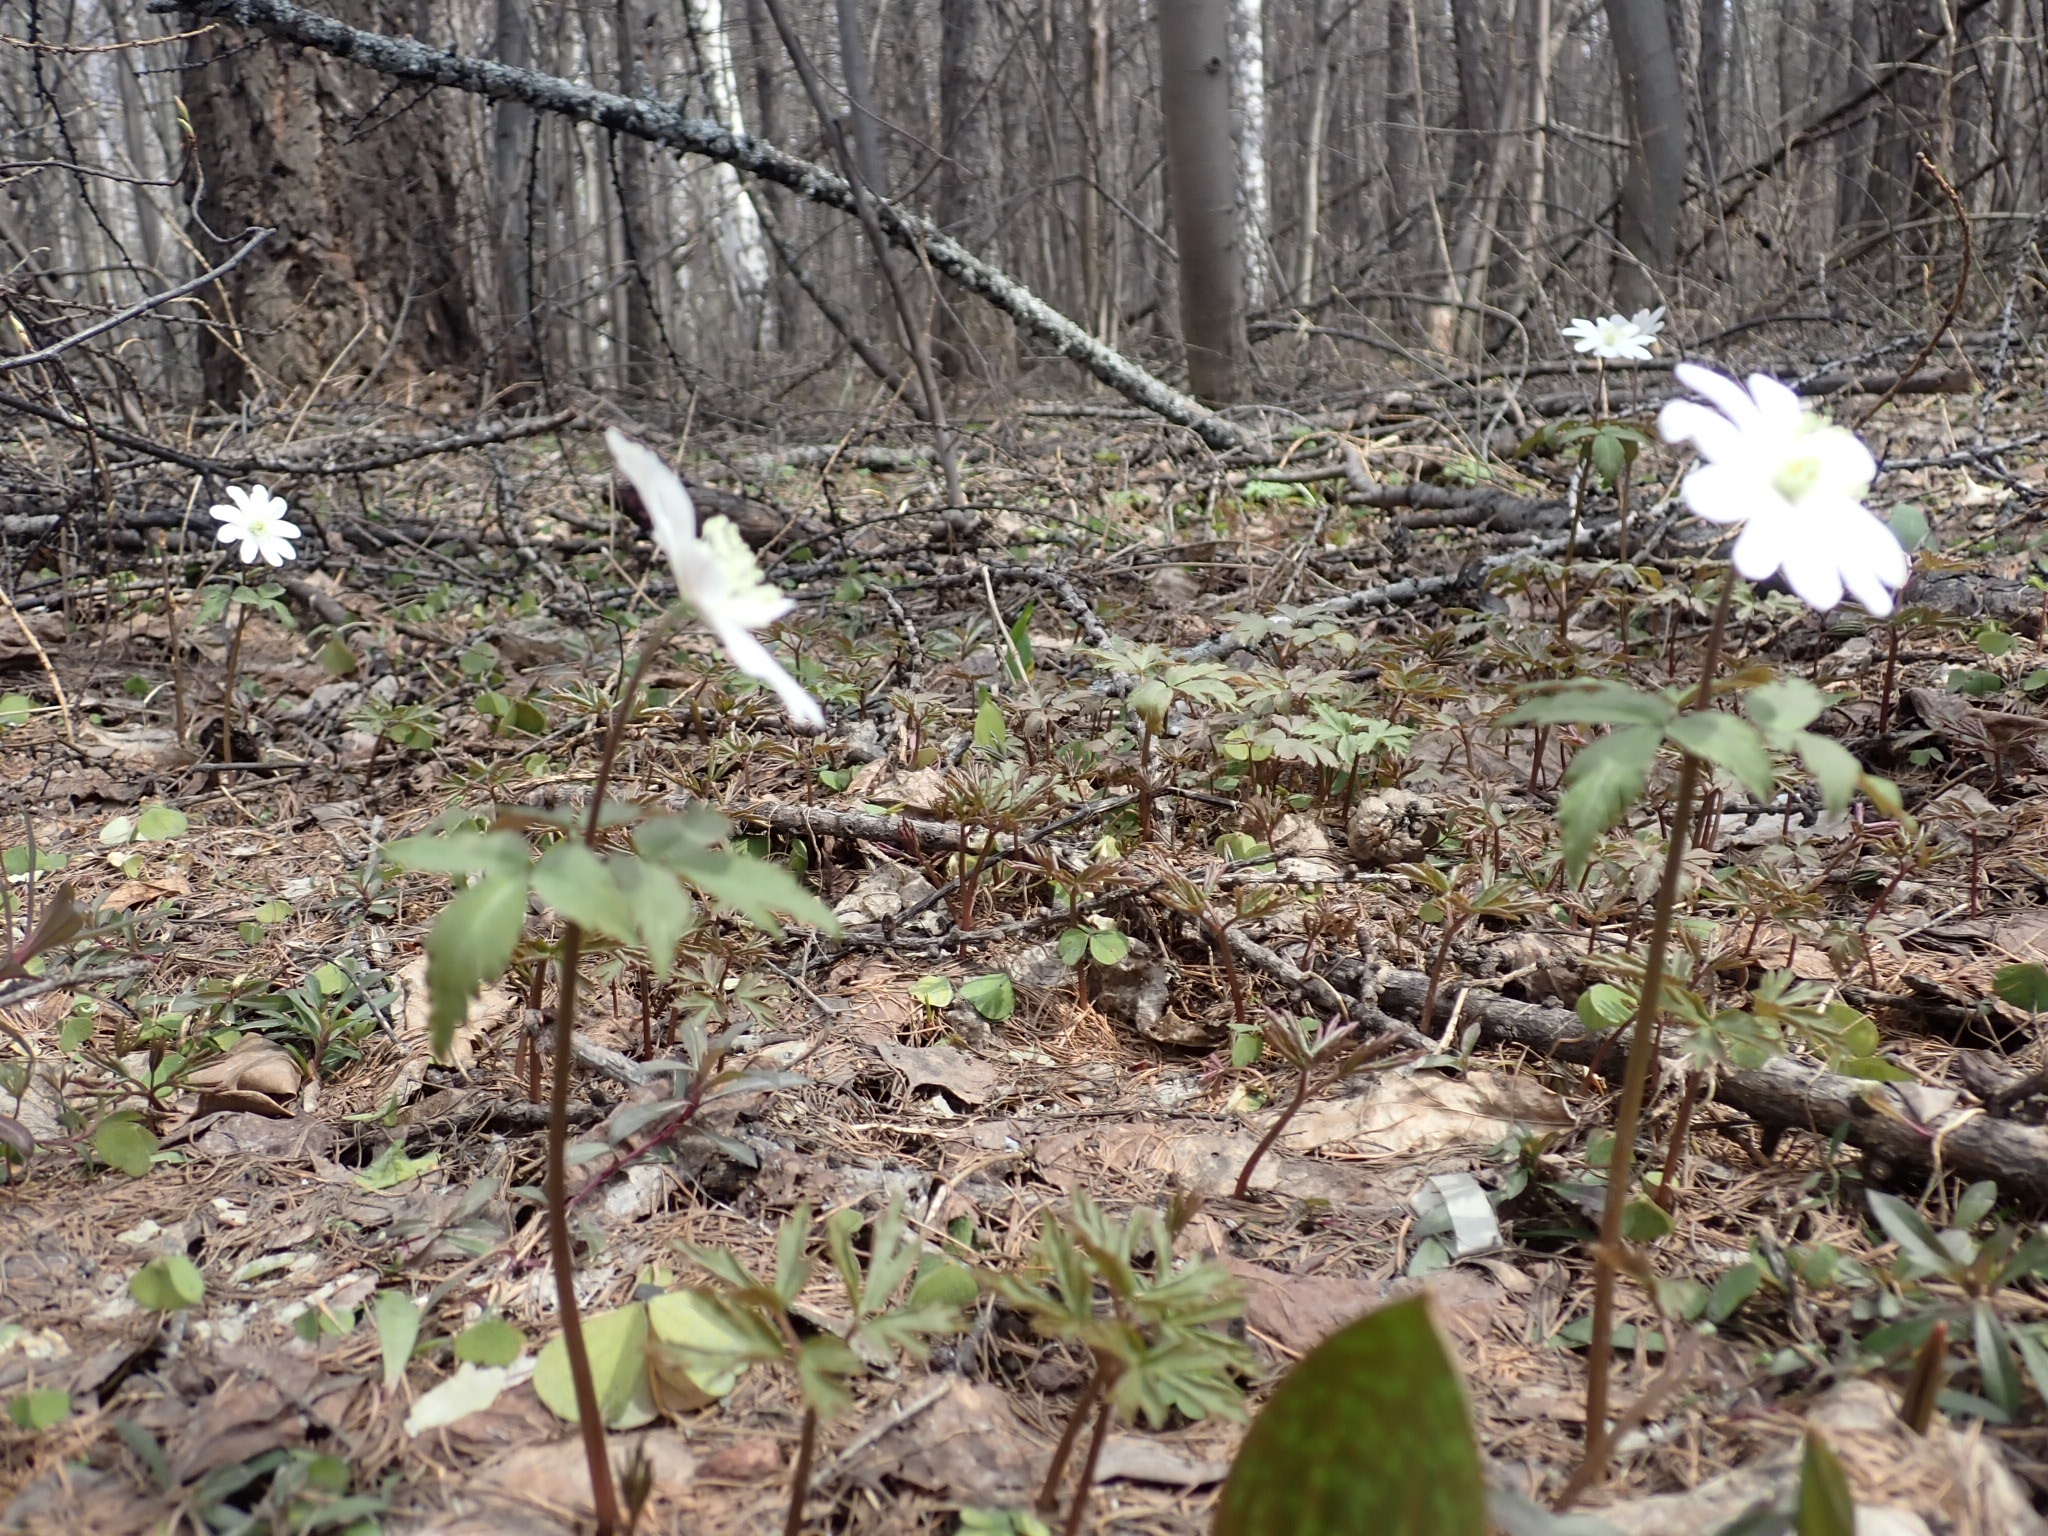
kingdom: Plantae
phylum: Tracheophyta
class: Magnoliopsida
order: Ranunculales
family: Ranunculaceae
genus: Anemone
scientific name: Anemone altaica
